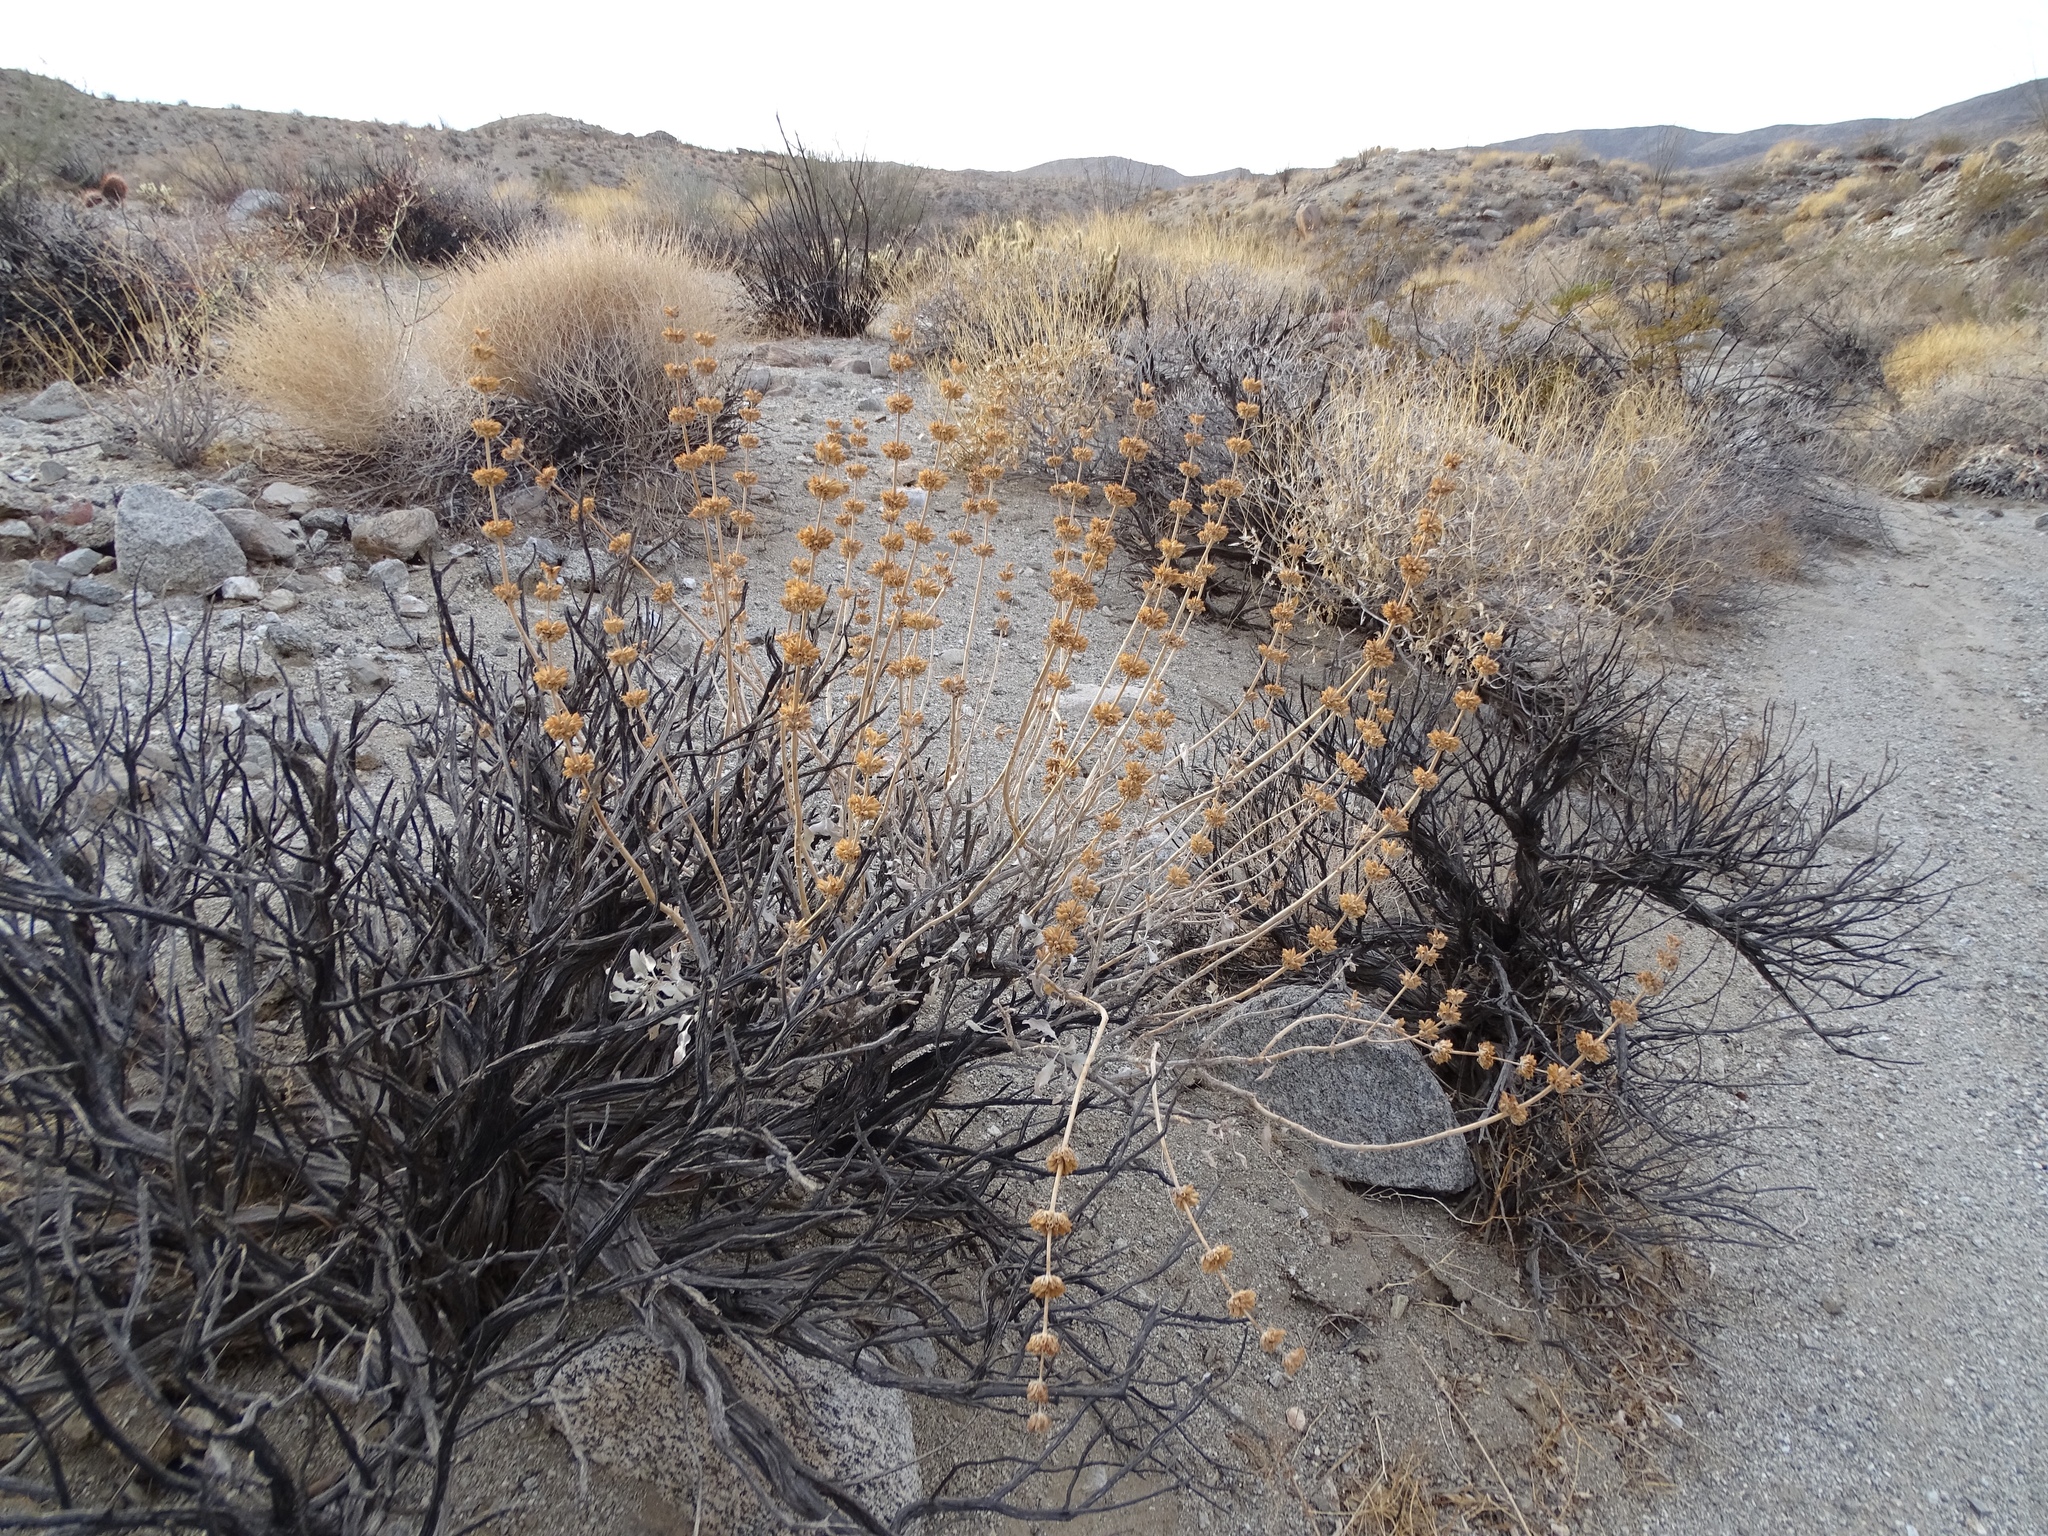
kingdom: Plantae
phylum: Tracheophyta
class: Magnoliopsida
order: Lamiales
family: Lamiaceae
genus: Salvia
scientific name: Salvia vaseyi
